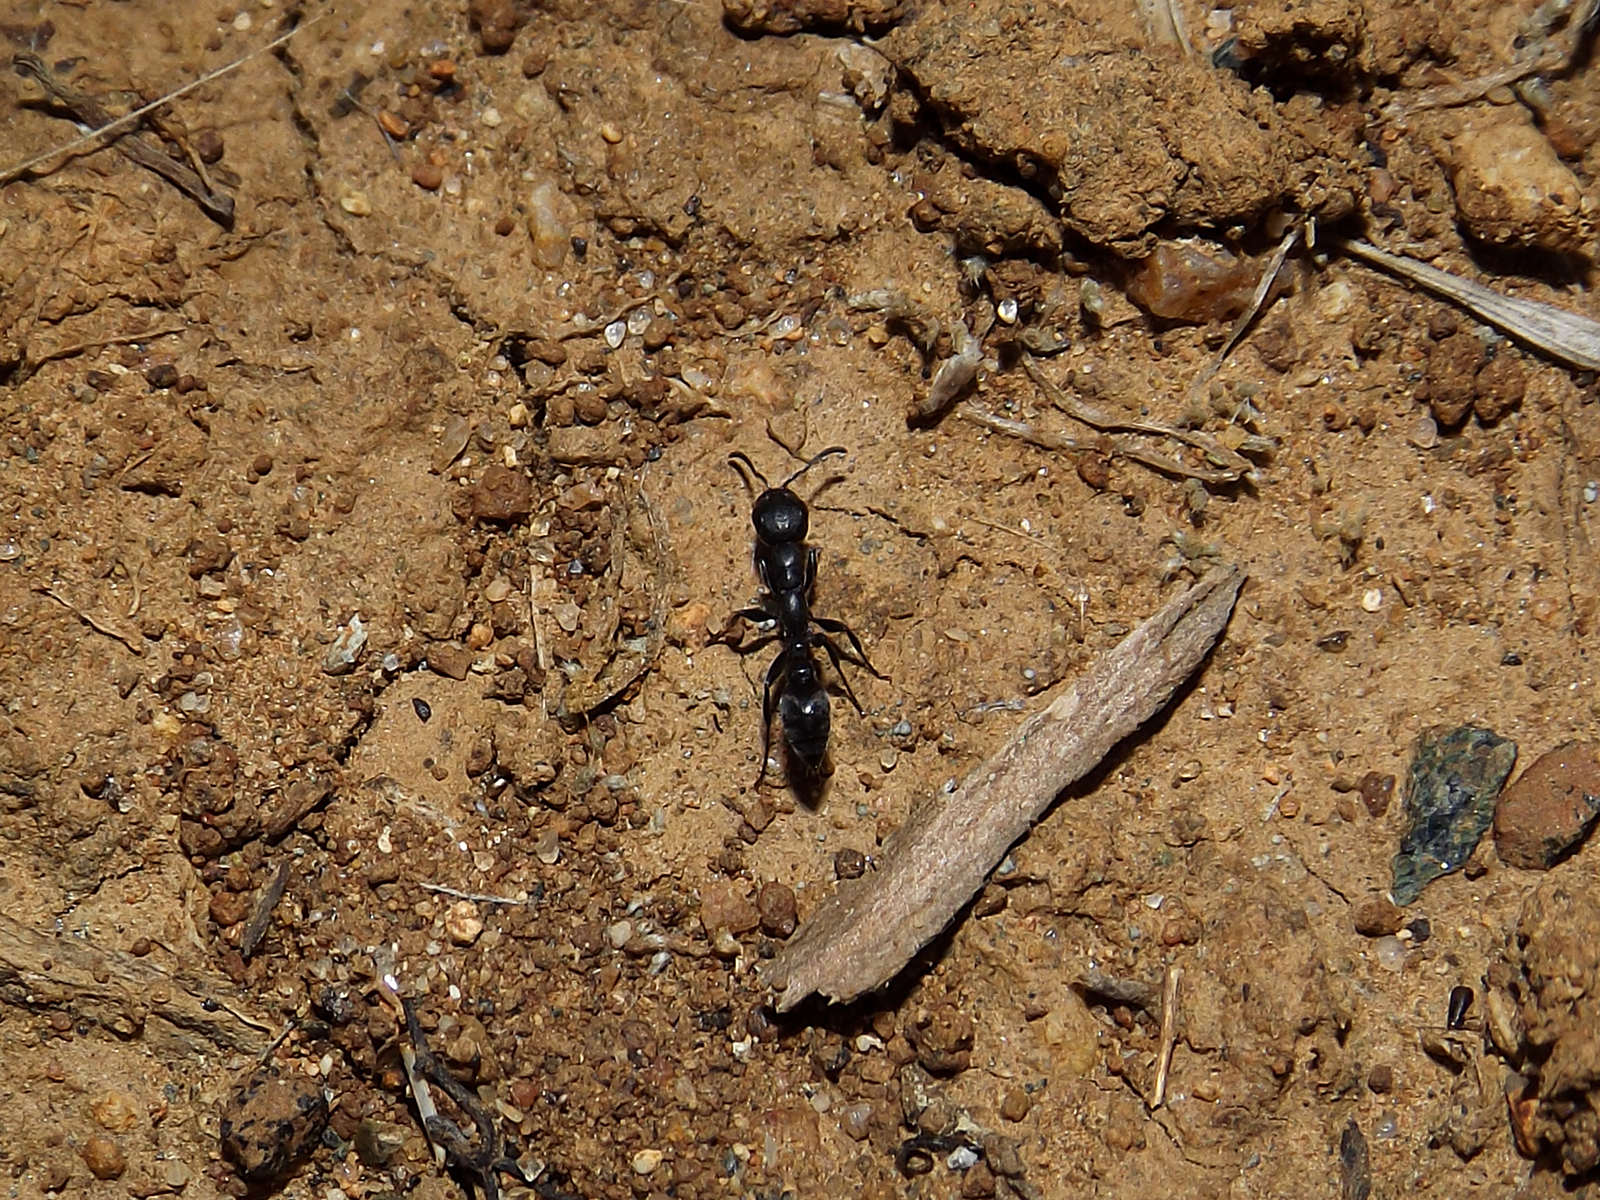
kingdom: Animalia
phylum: Arthropoda
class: Insecta
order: Hymenoptera
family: Formicidae
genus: Pseudomyrmex
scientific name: Pseudomyrmex lynceus
